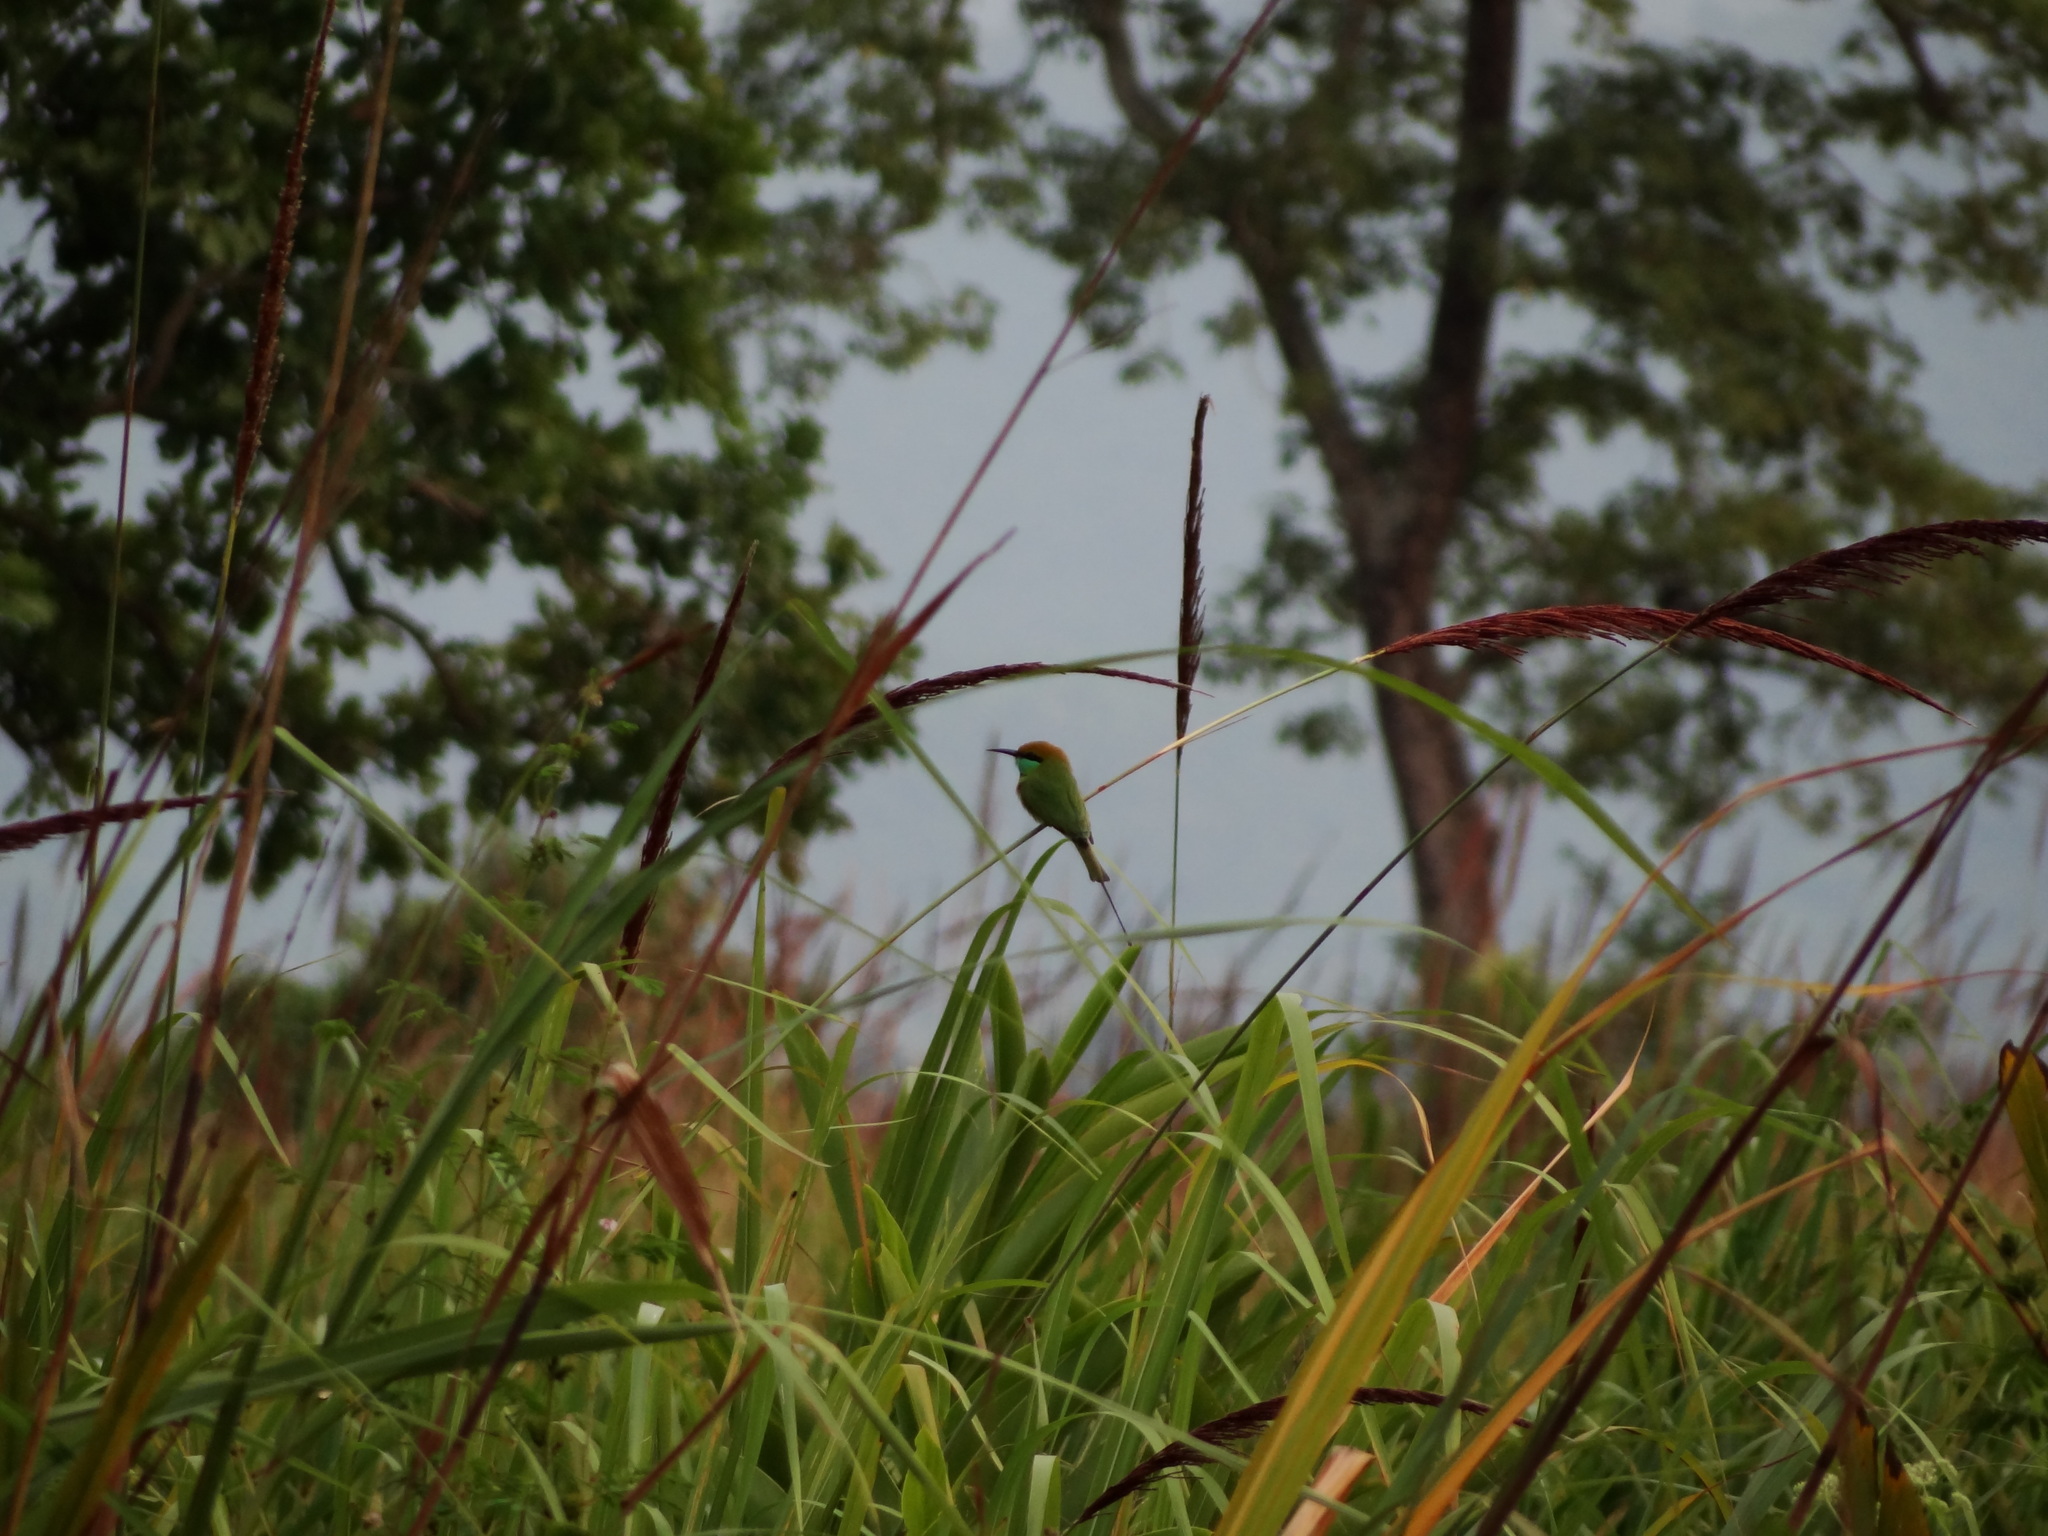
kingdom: Animalia
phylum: Chordata
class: Aves
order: Coraciiformes
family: Meropidae
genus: Merops
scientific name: Merops orientalis
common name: Green bee-eater
